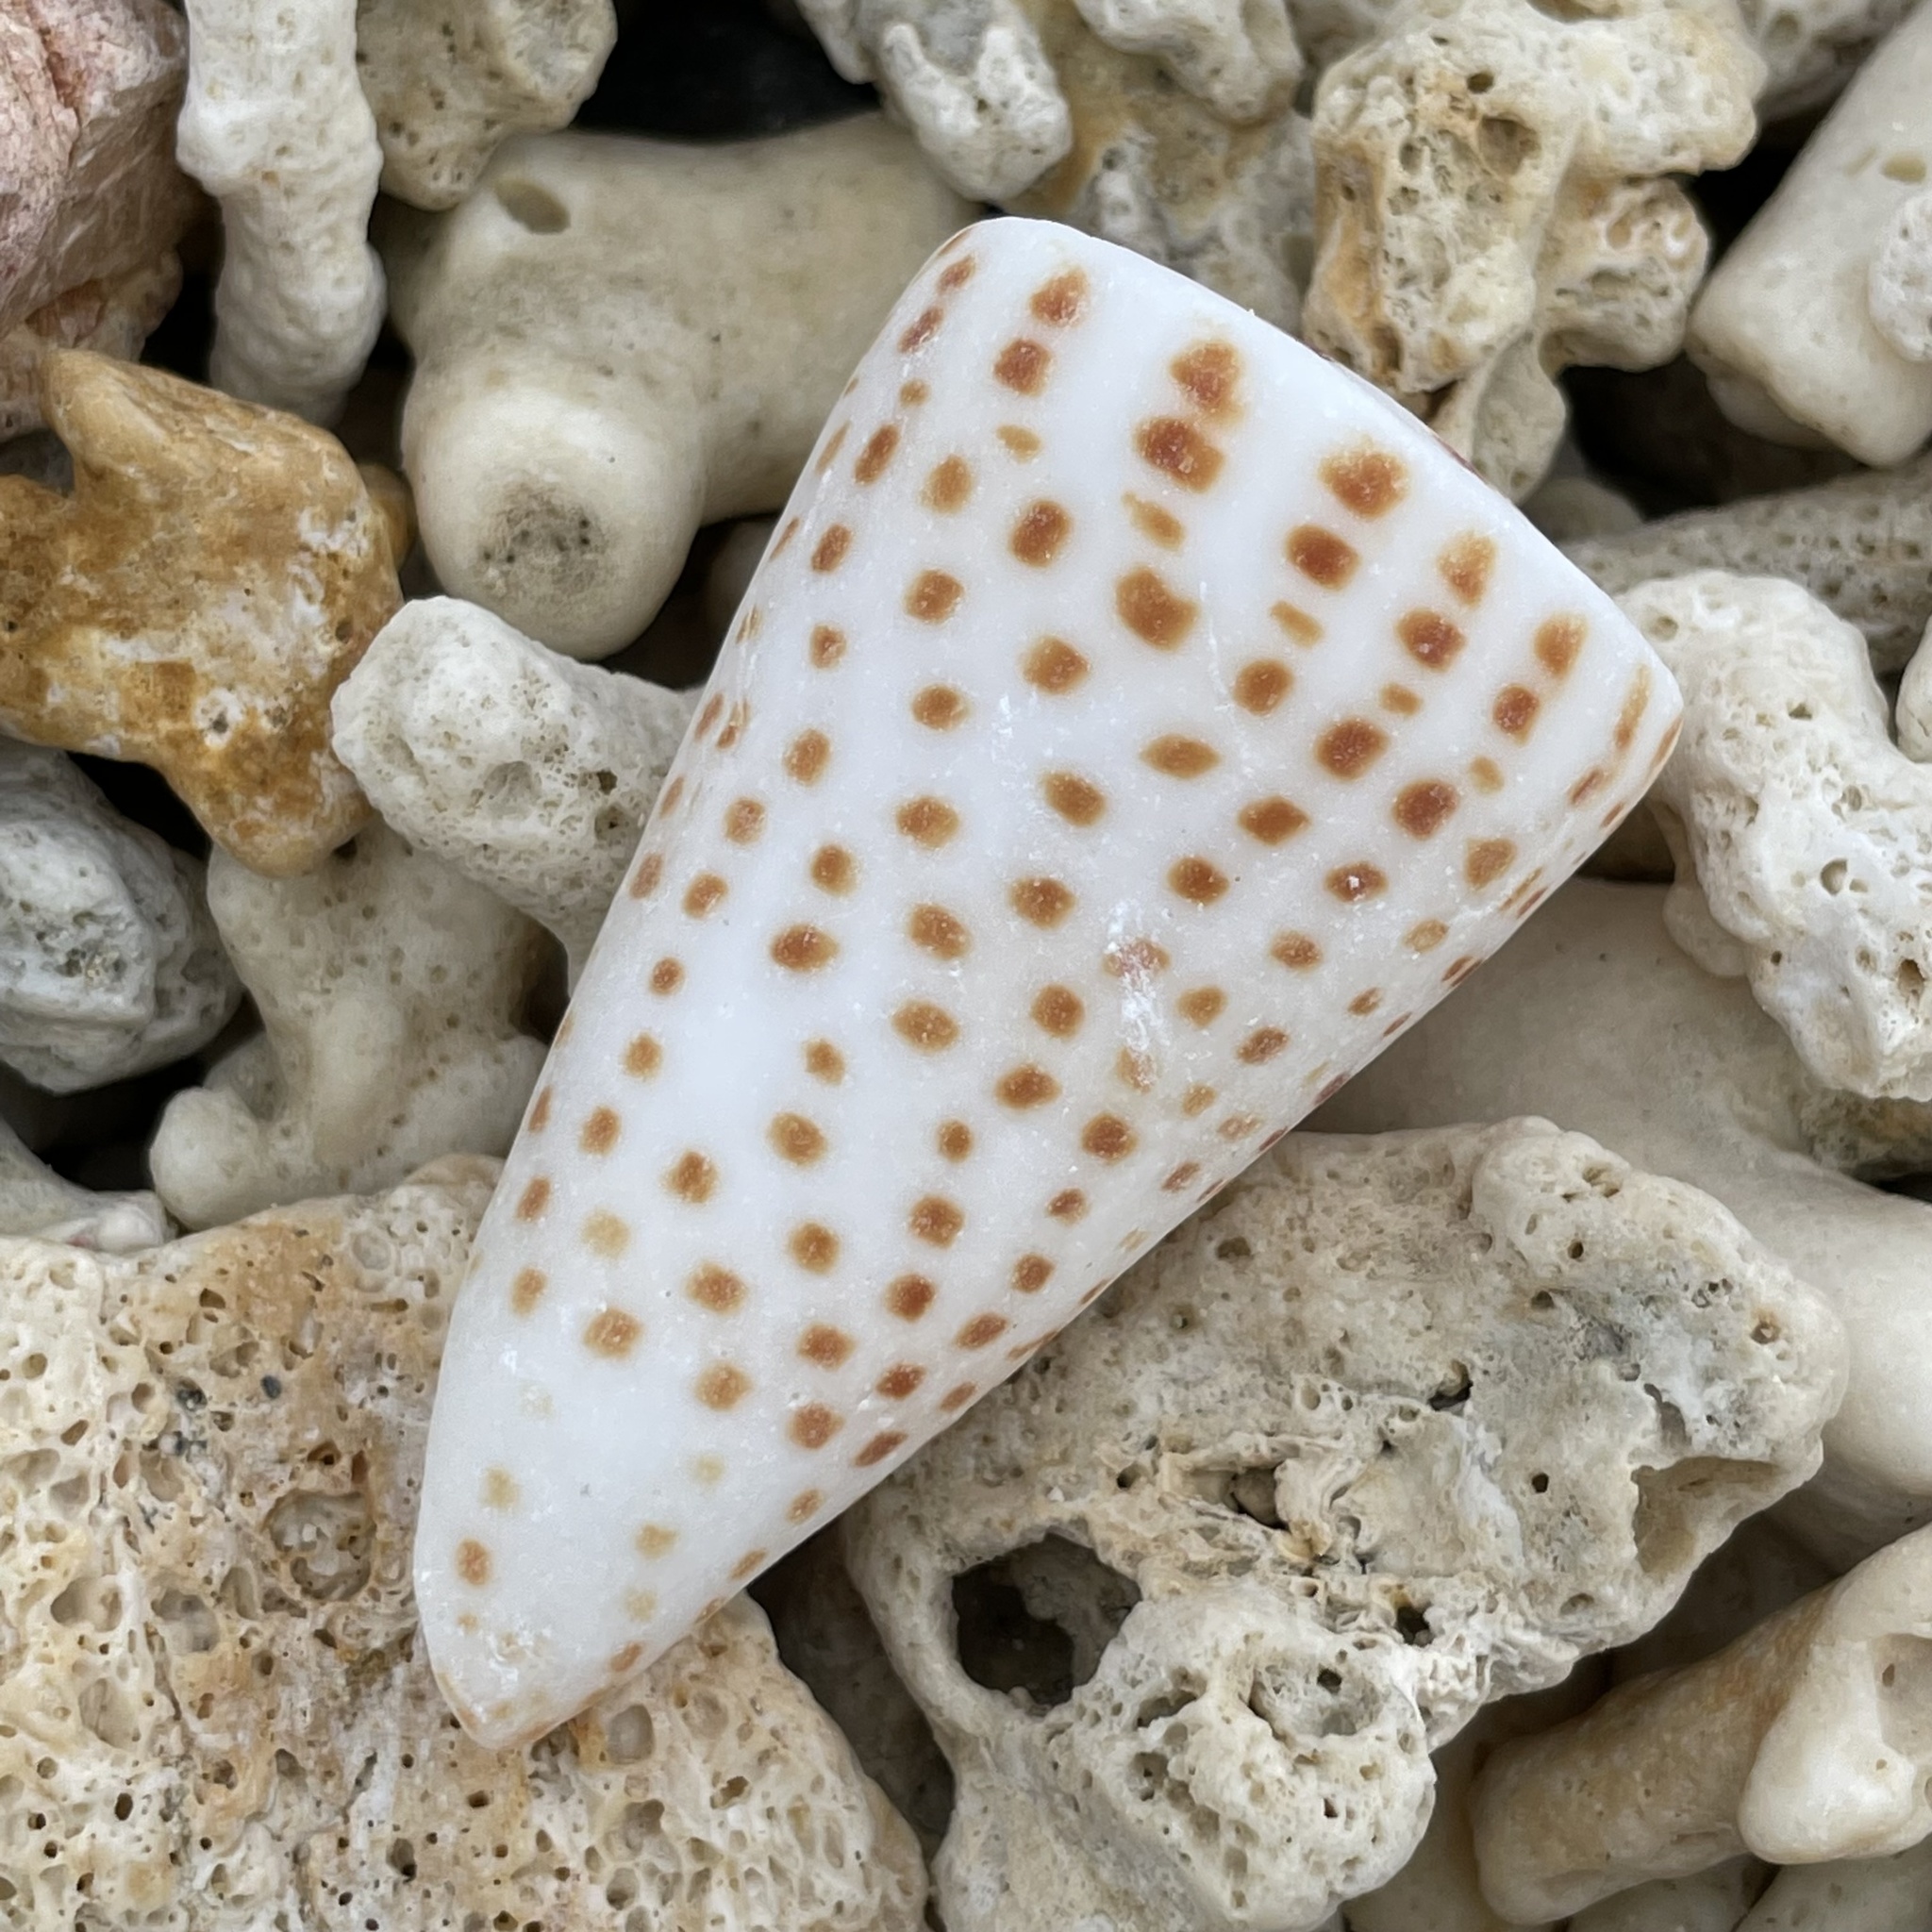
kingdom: Animalia
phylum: Mollusca
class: Gastropoda
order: Neogastropoda
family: Conidae
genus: Conus
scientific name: Conus litteratus
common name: Lettered cone
